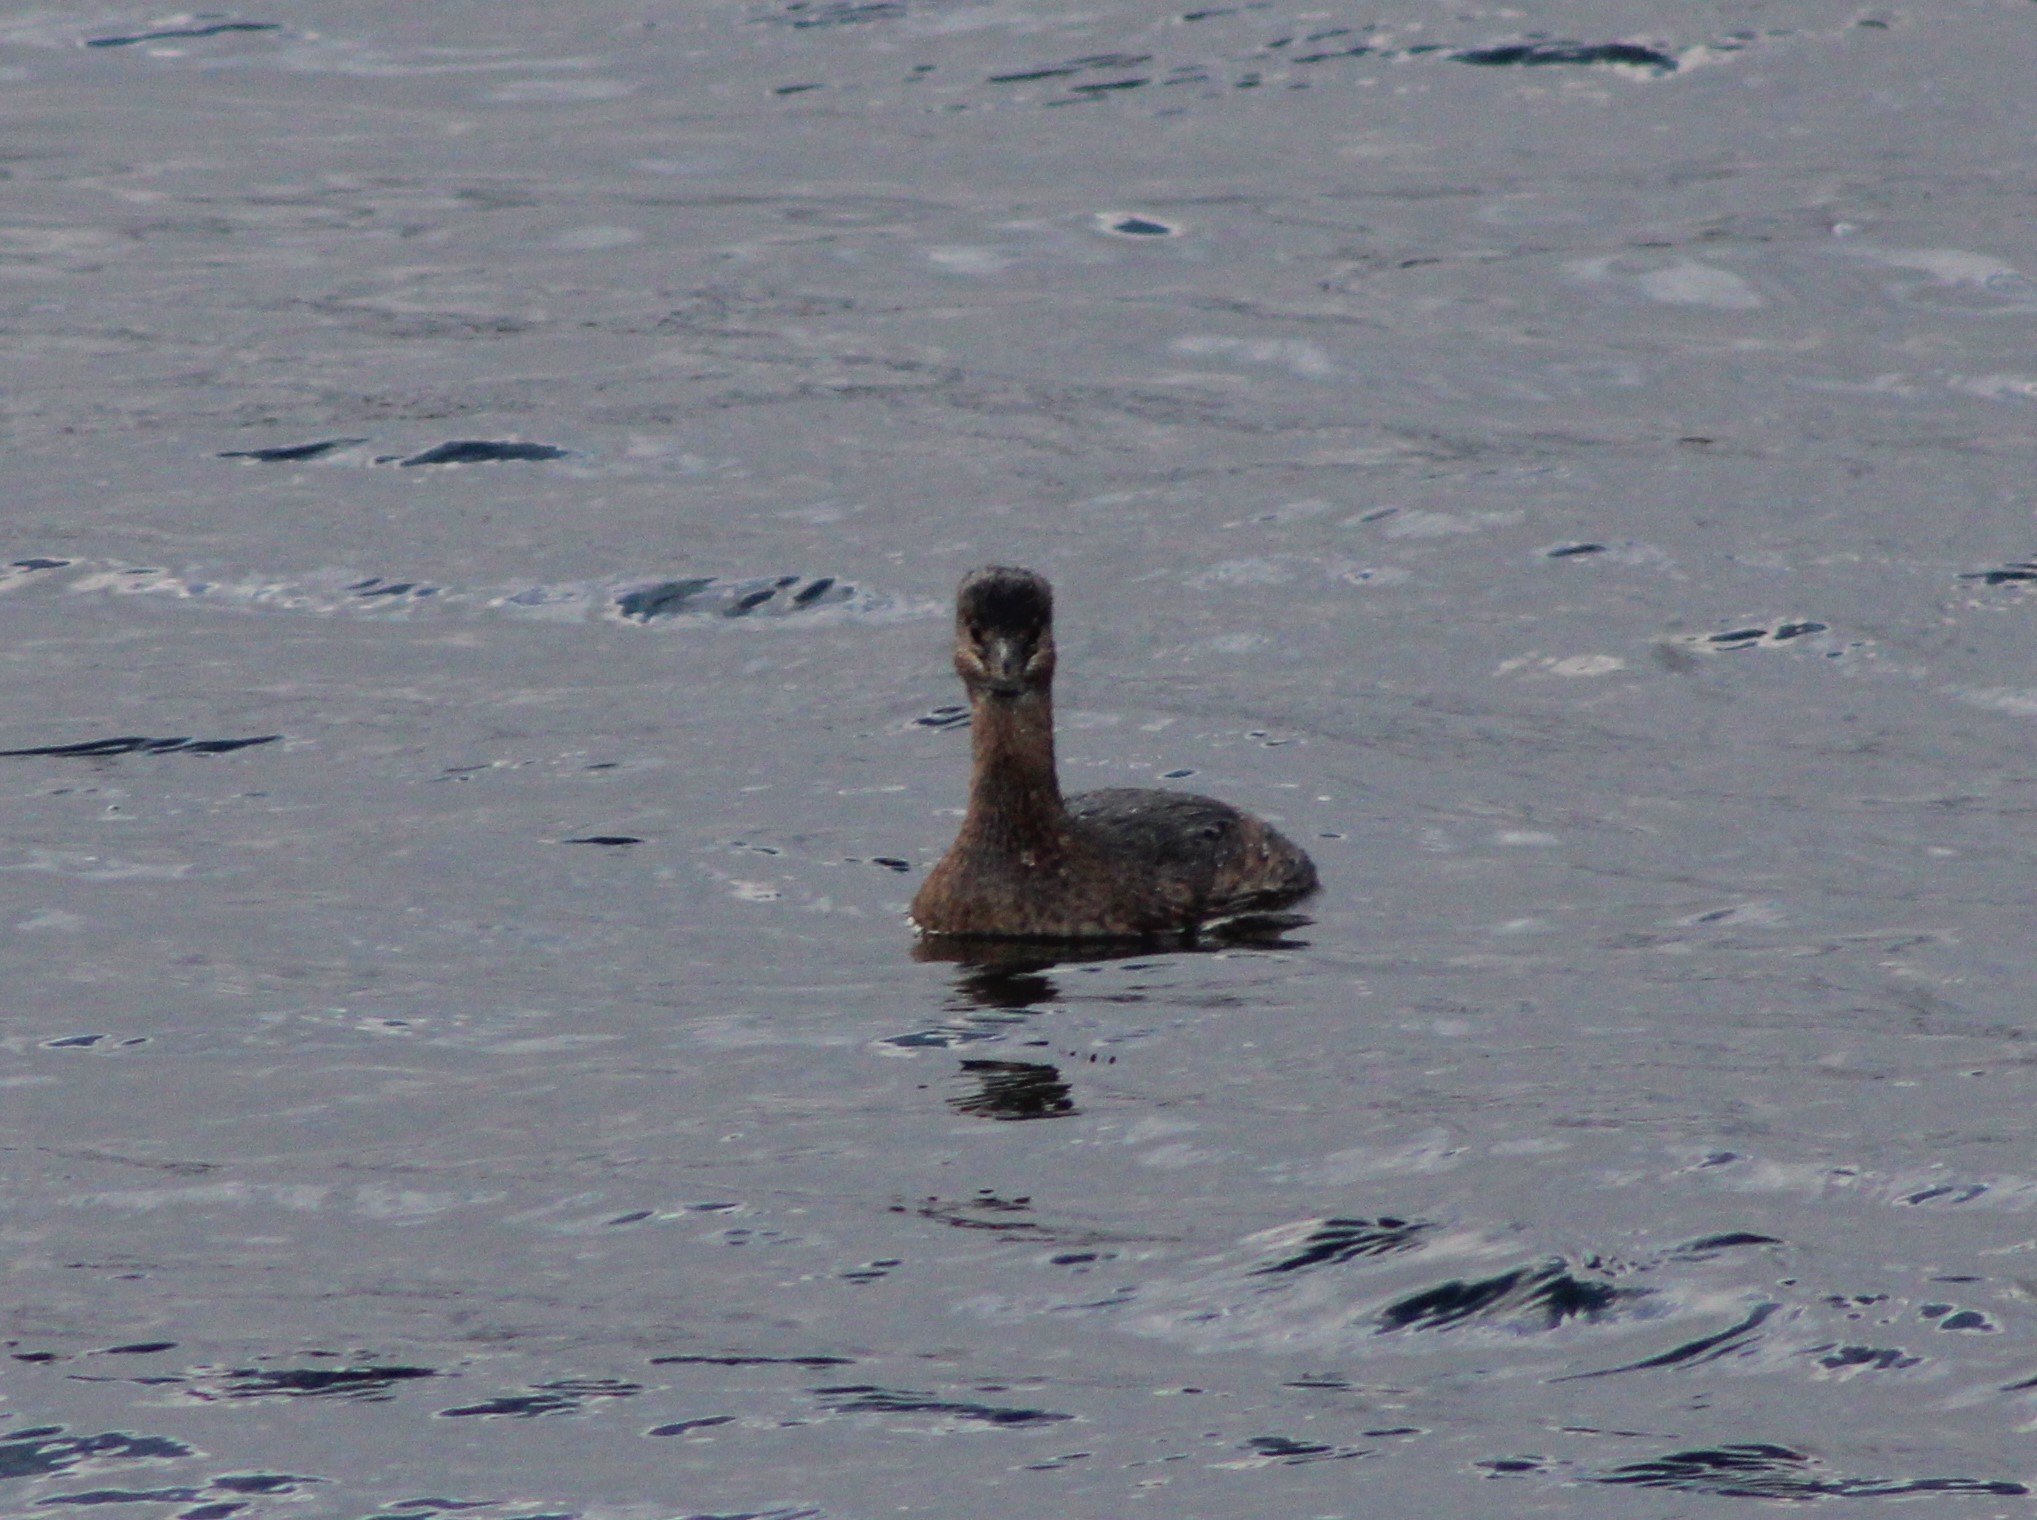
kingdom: Animalia
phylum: Chordata
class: Aves
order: Podicipediformes
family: Podicipedidae
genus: Podilymbus
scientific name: Podilymbus podiceps
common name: Pied-billed grebe
